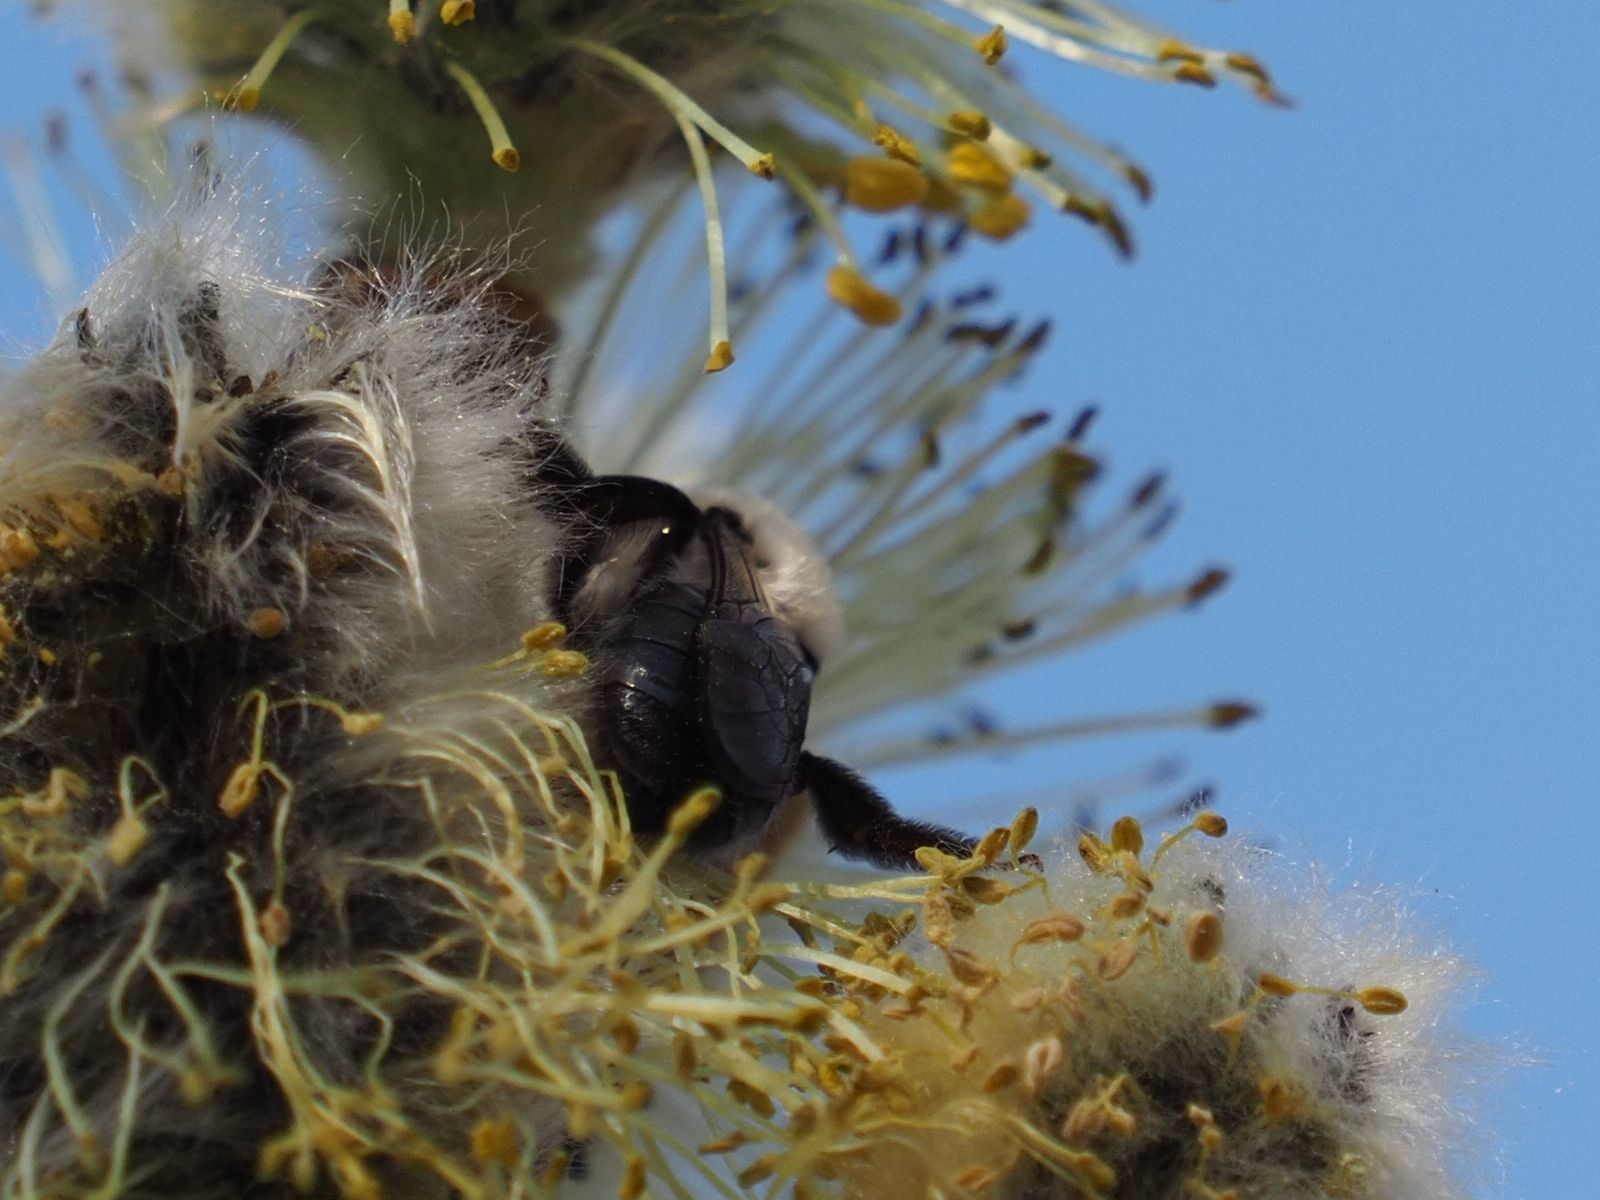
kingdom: Animalia
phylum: Arthropoda
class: Insecta
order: Hymenoptera
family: Andrenidae
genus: Andrena
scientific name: Andrena vaga
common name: Grey-backed mining bee
